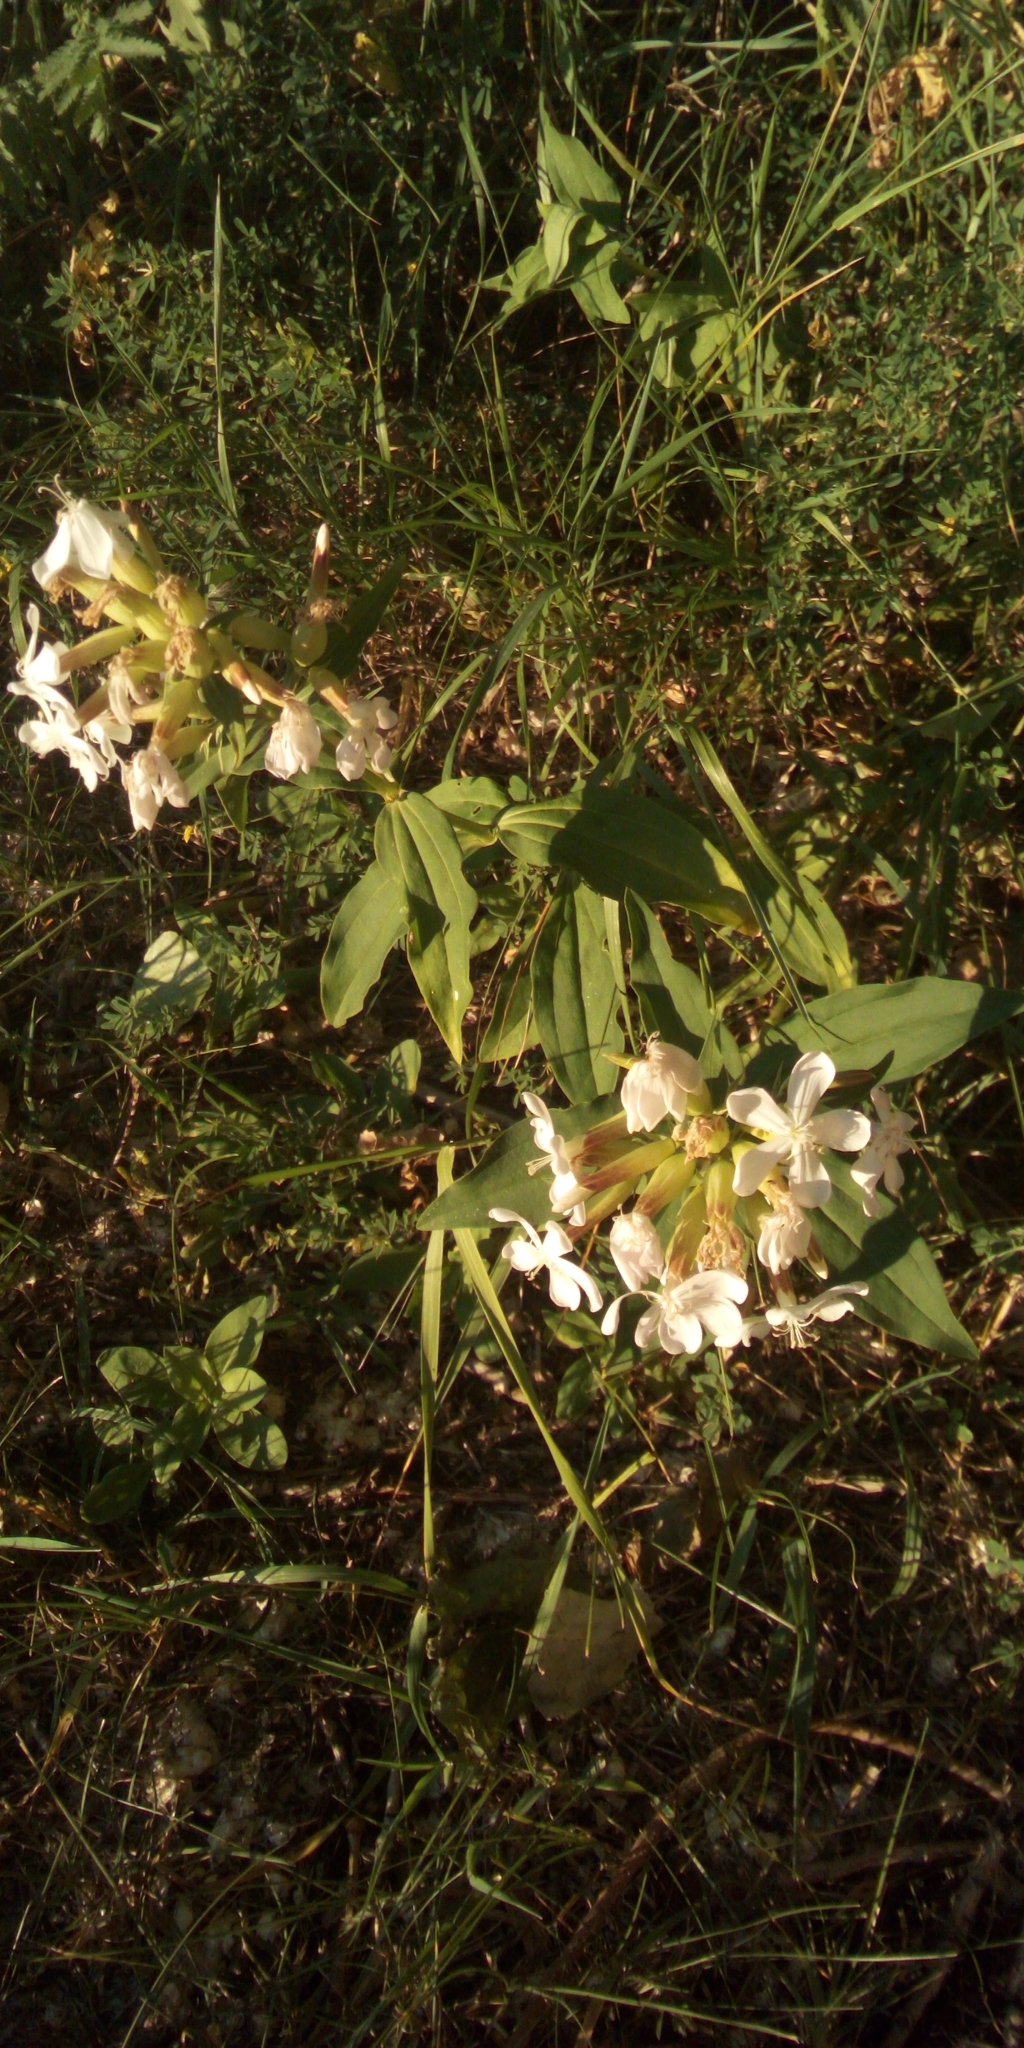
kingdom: Plantae
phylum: Tracheophyta
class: Magnoliopsida
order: Caryophyllales
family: Caryophyllaceae
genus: Saponaria
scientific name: Saponaria officinalis
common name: Soapwort
